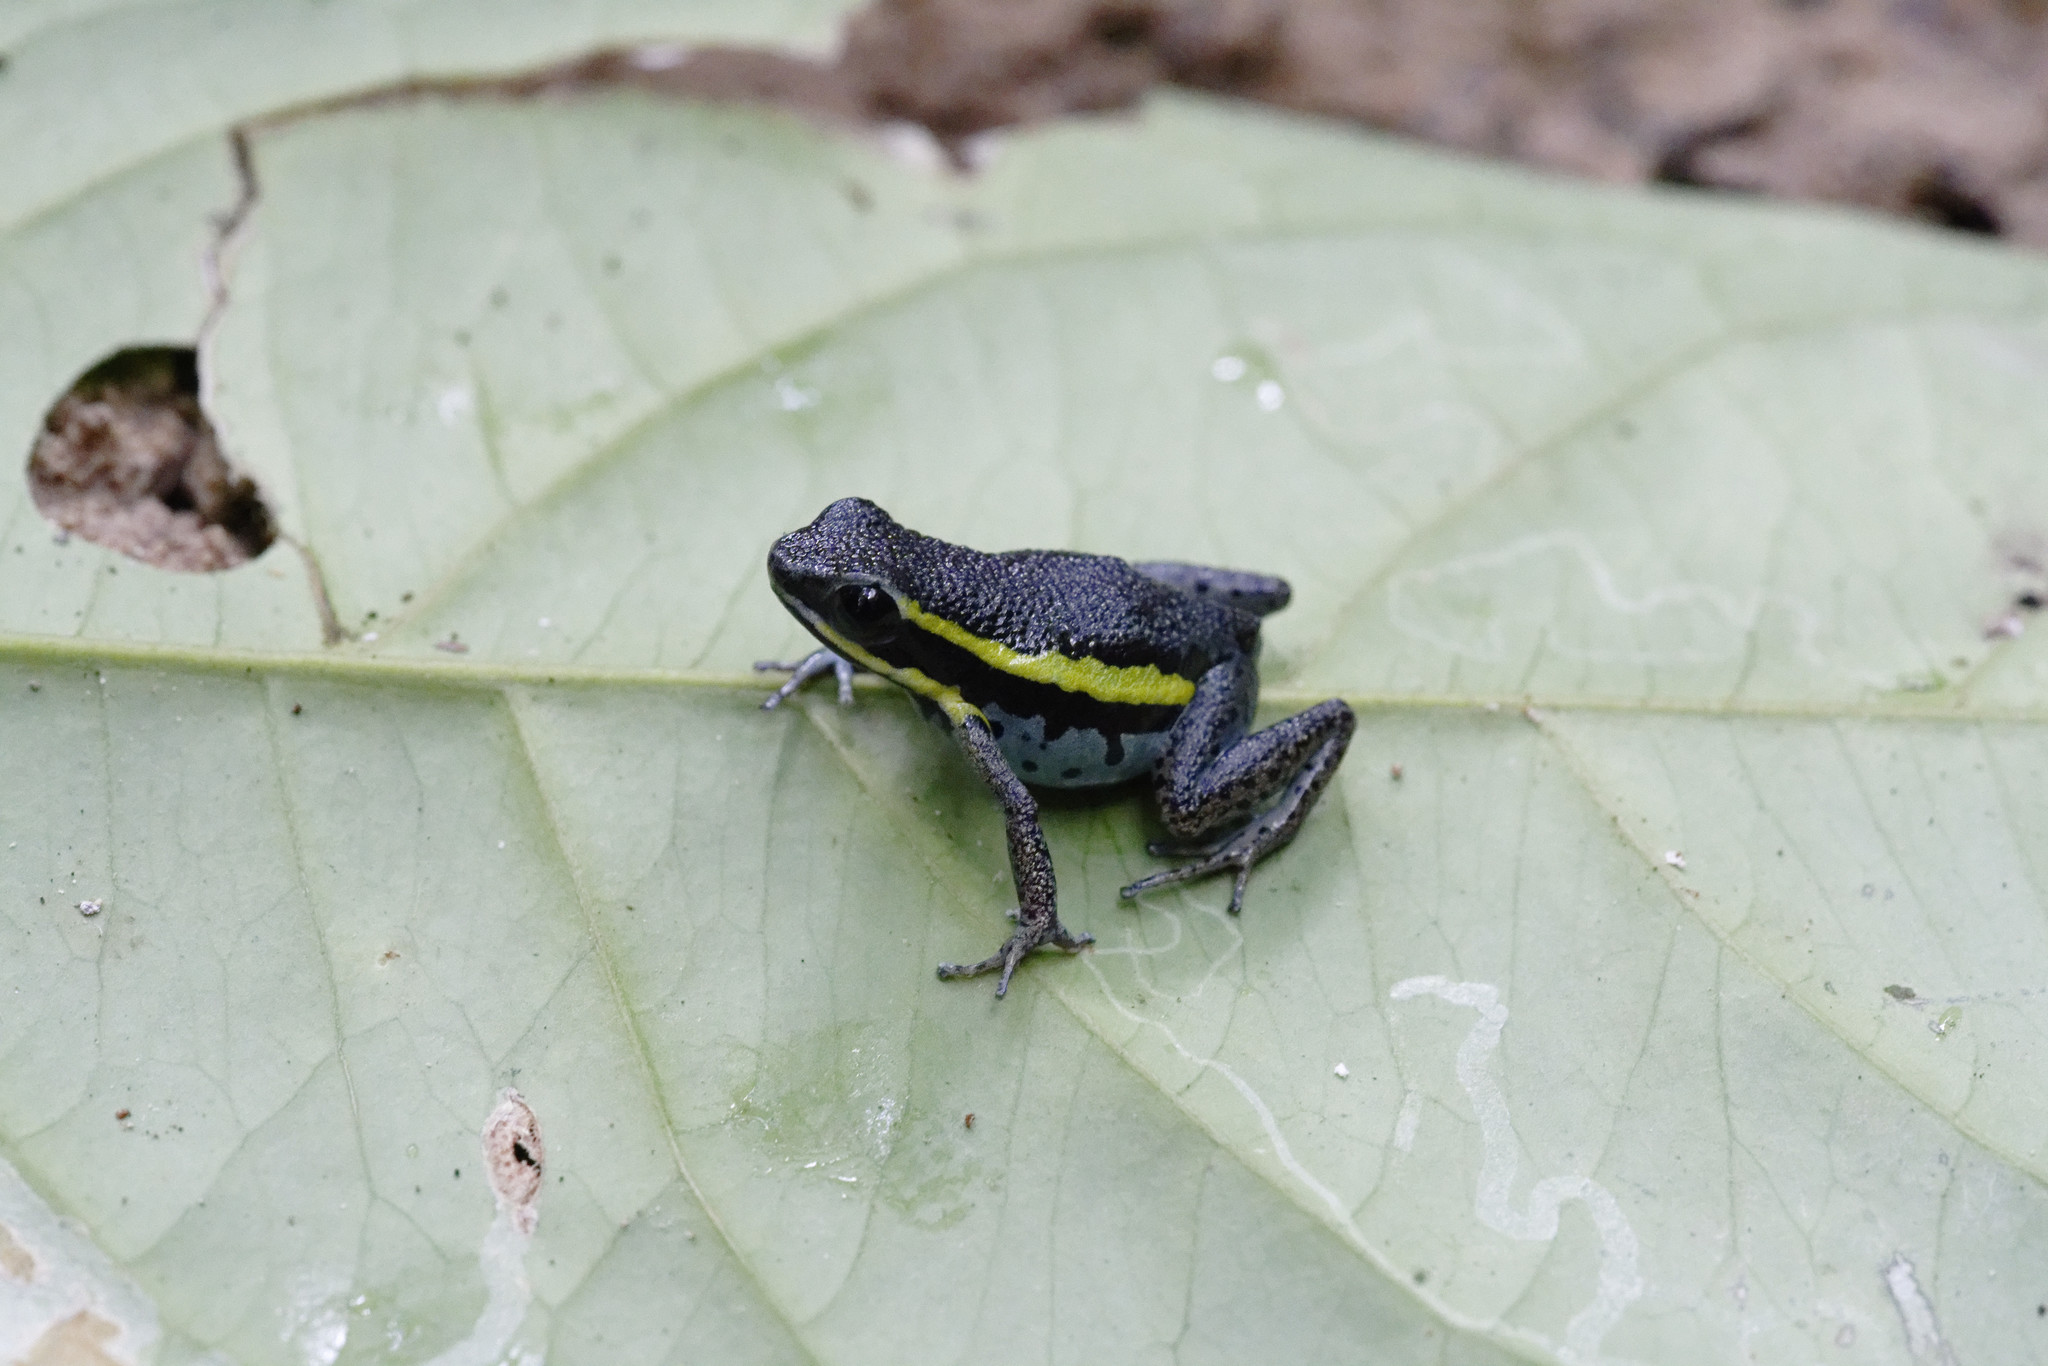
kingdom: Animalia
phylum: Chordata
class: Amphibia
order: Anura
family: Dendrobatidae
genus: Ameerega
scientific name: Ameerega pongoensis
